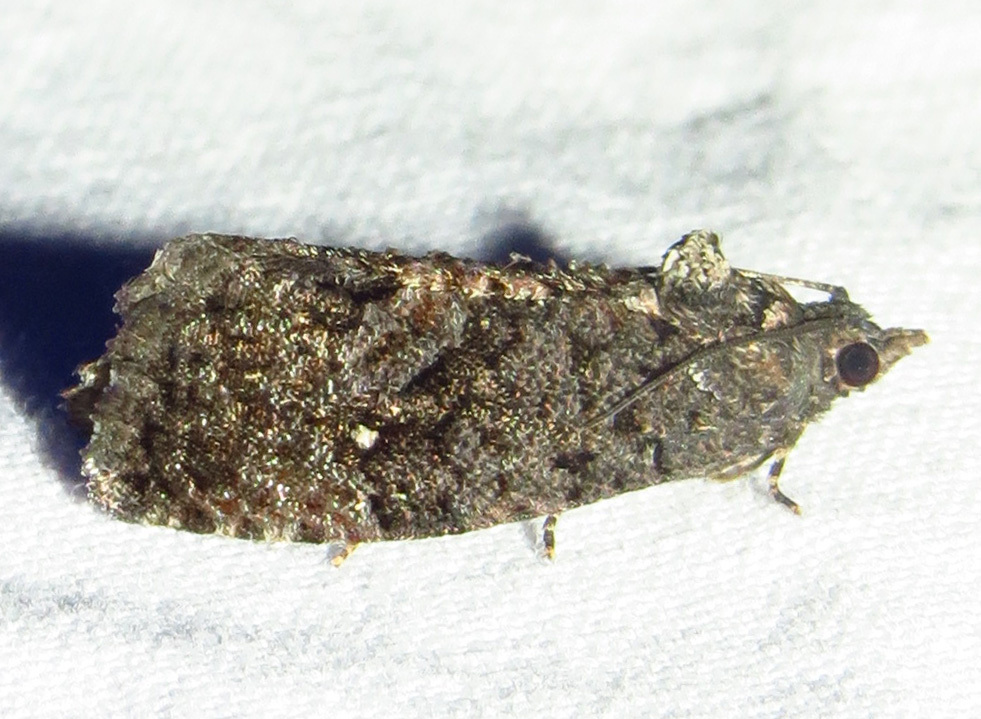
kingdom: Animalia
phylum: Arthropoda
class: Insecta
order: Lepidoptera
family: Tortricidae
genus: Gymnandrosoma
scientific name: Gymnandrosoma punctidiscanum
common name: Dotted ecdytolopha moth
